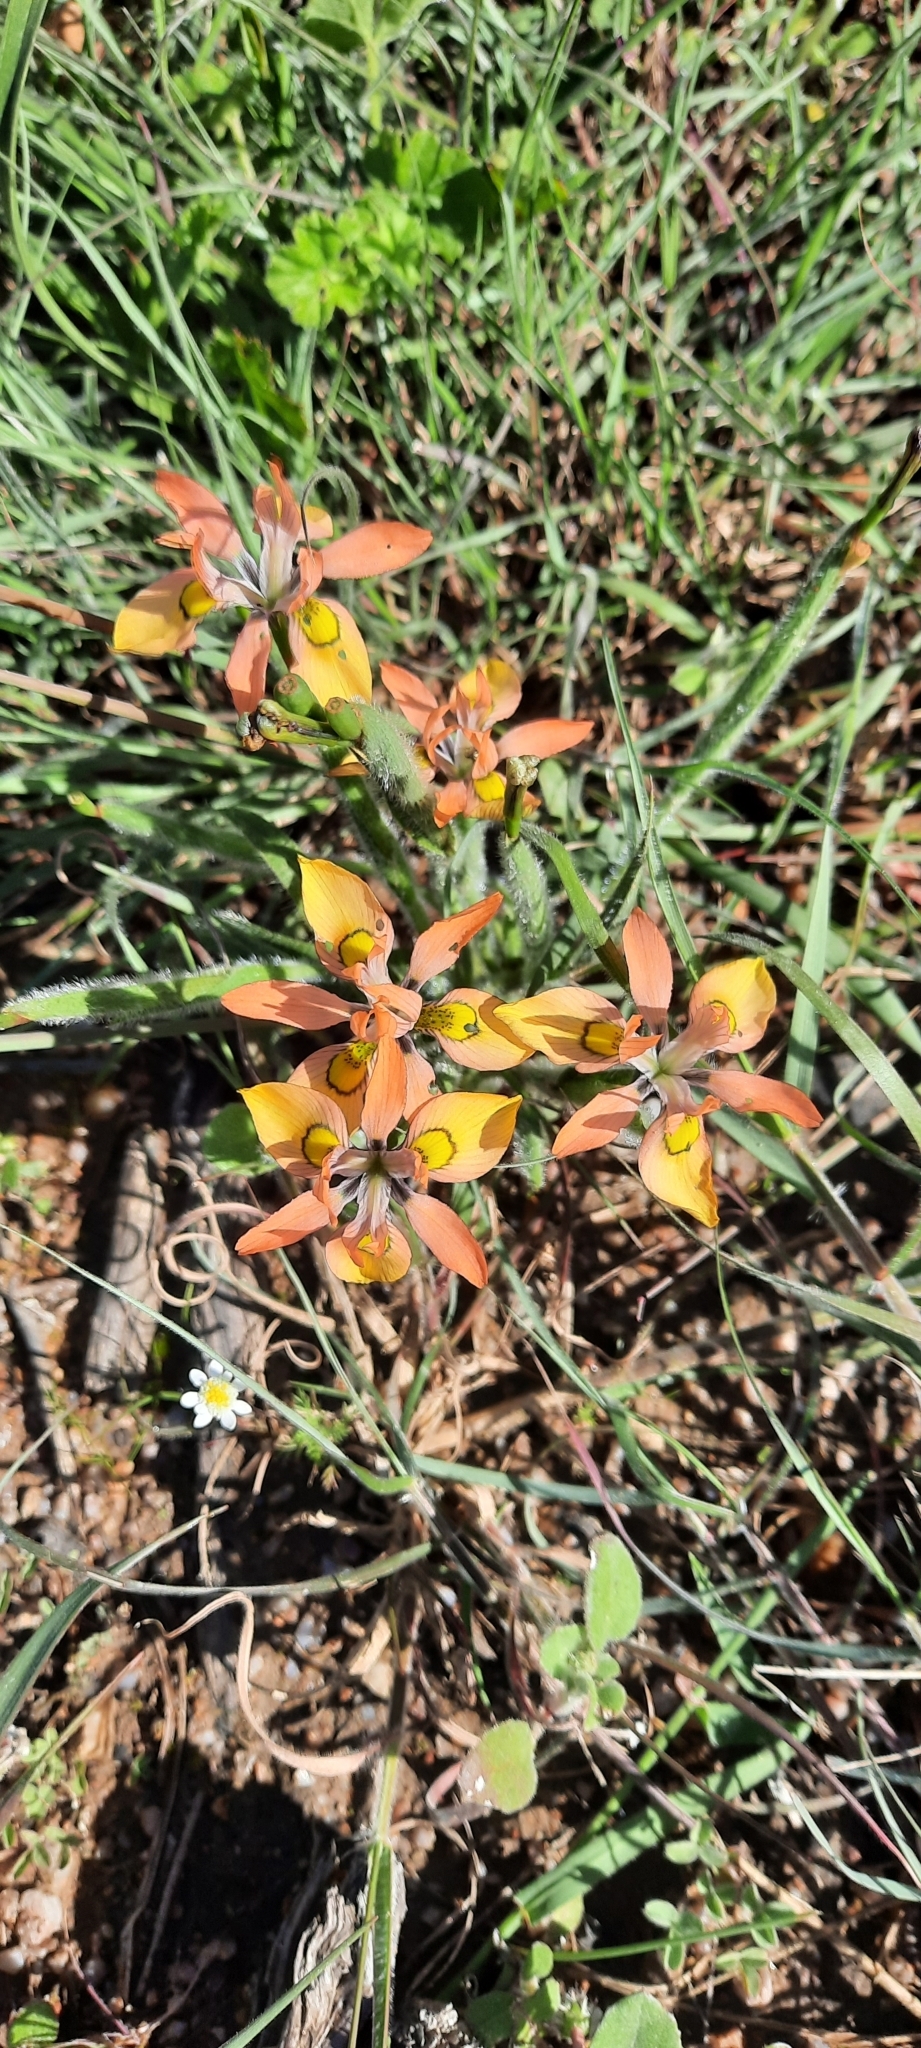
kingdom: Plantae
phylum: Tracheophyta
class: Liliopsida
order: Asparagales
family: Iridaceae
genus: Moraea
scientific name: Moraea papilionacea
